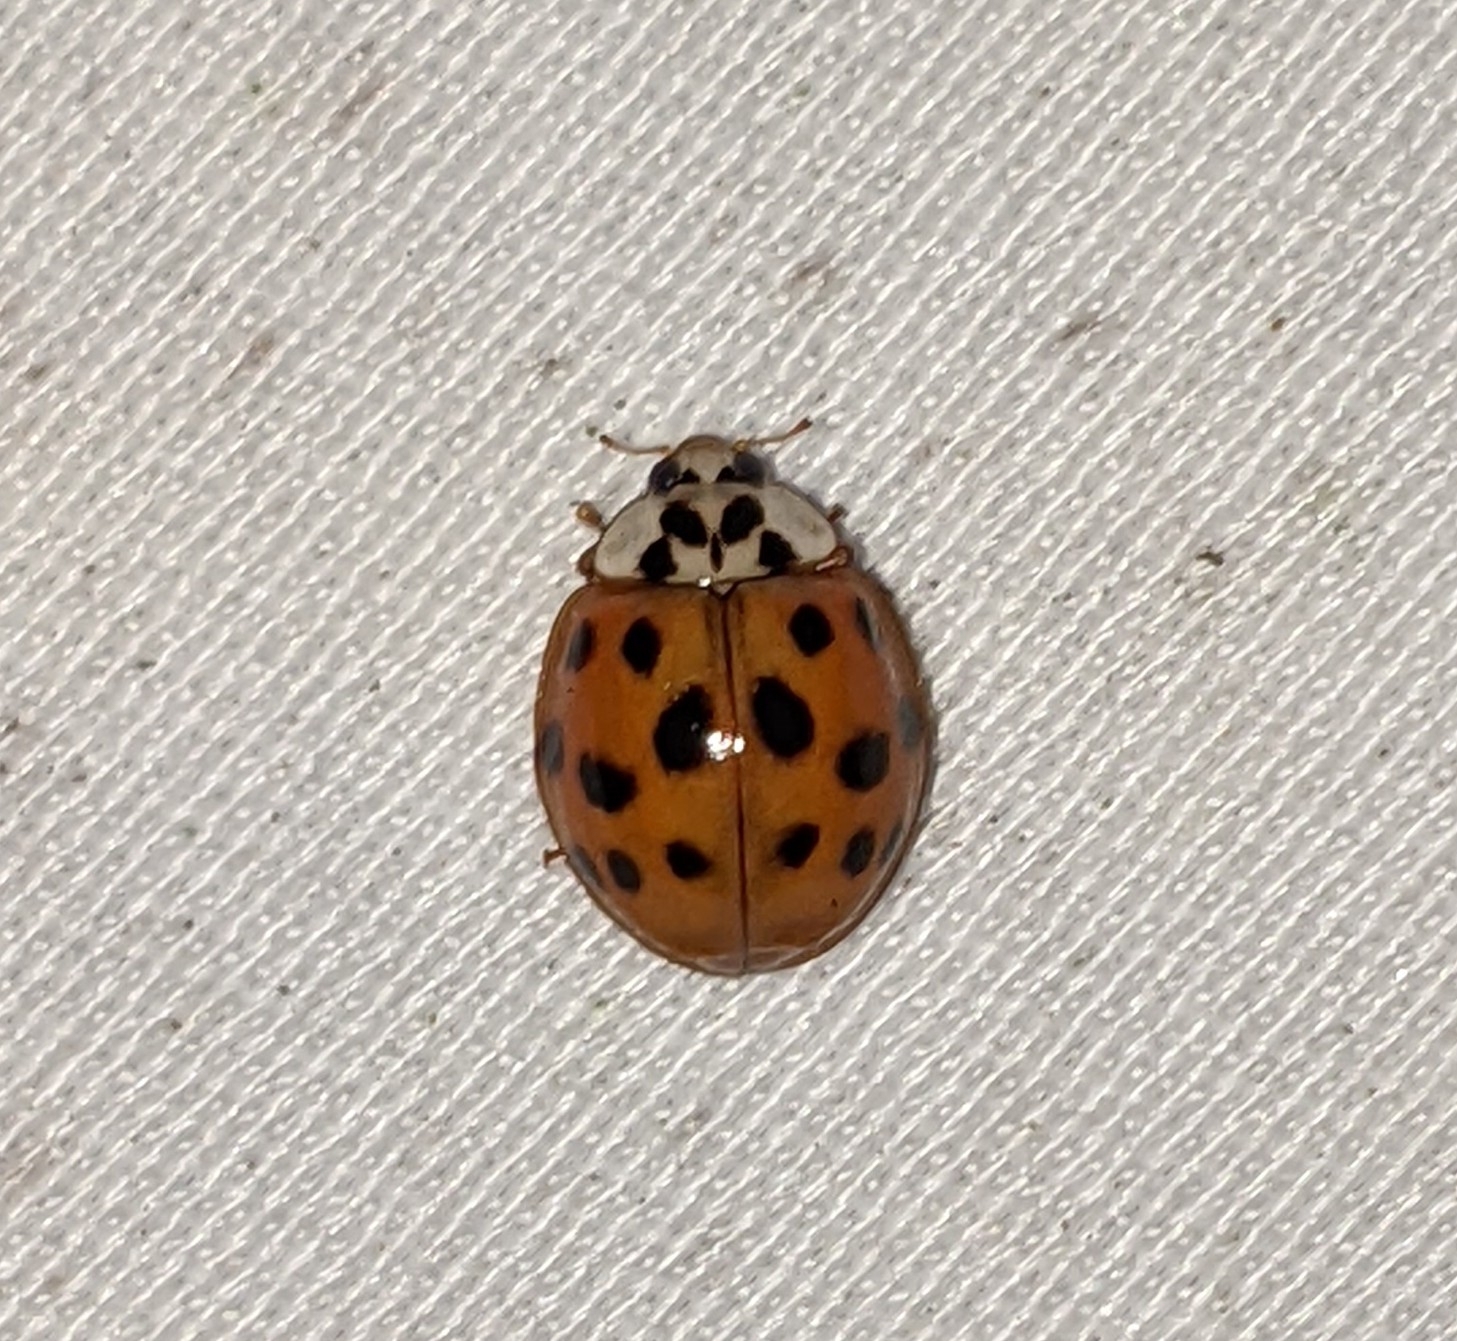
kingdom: Animalia
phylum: Arthropoda
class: Insecta
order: Coleoptera
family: Coccinellidae
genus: Harmonia
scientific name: Harmonia axyridis
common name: Harlequin ladybird
